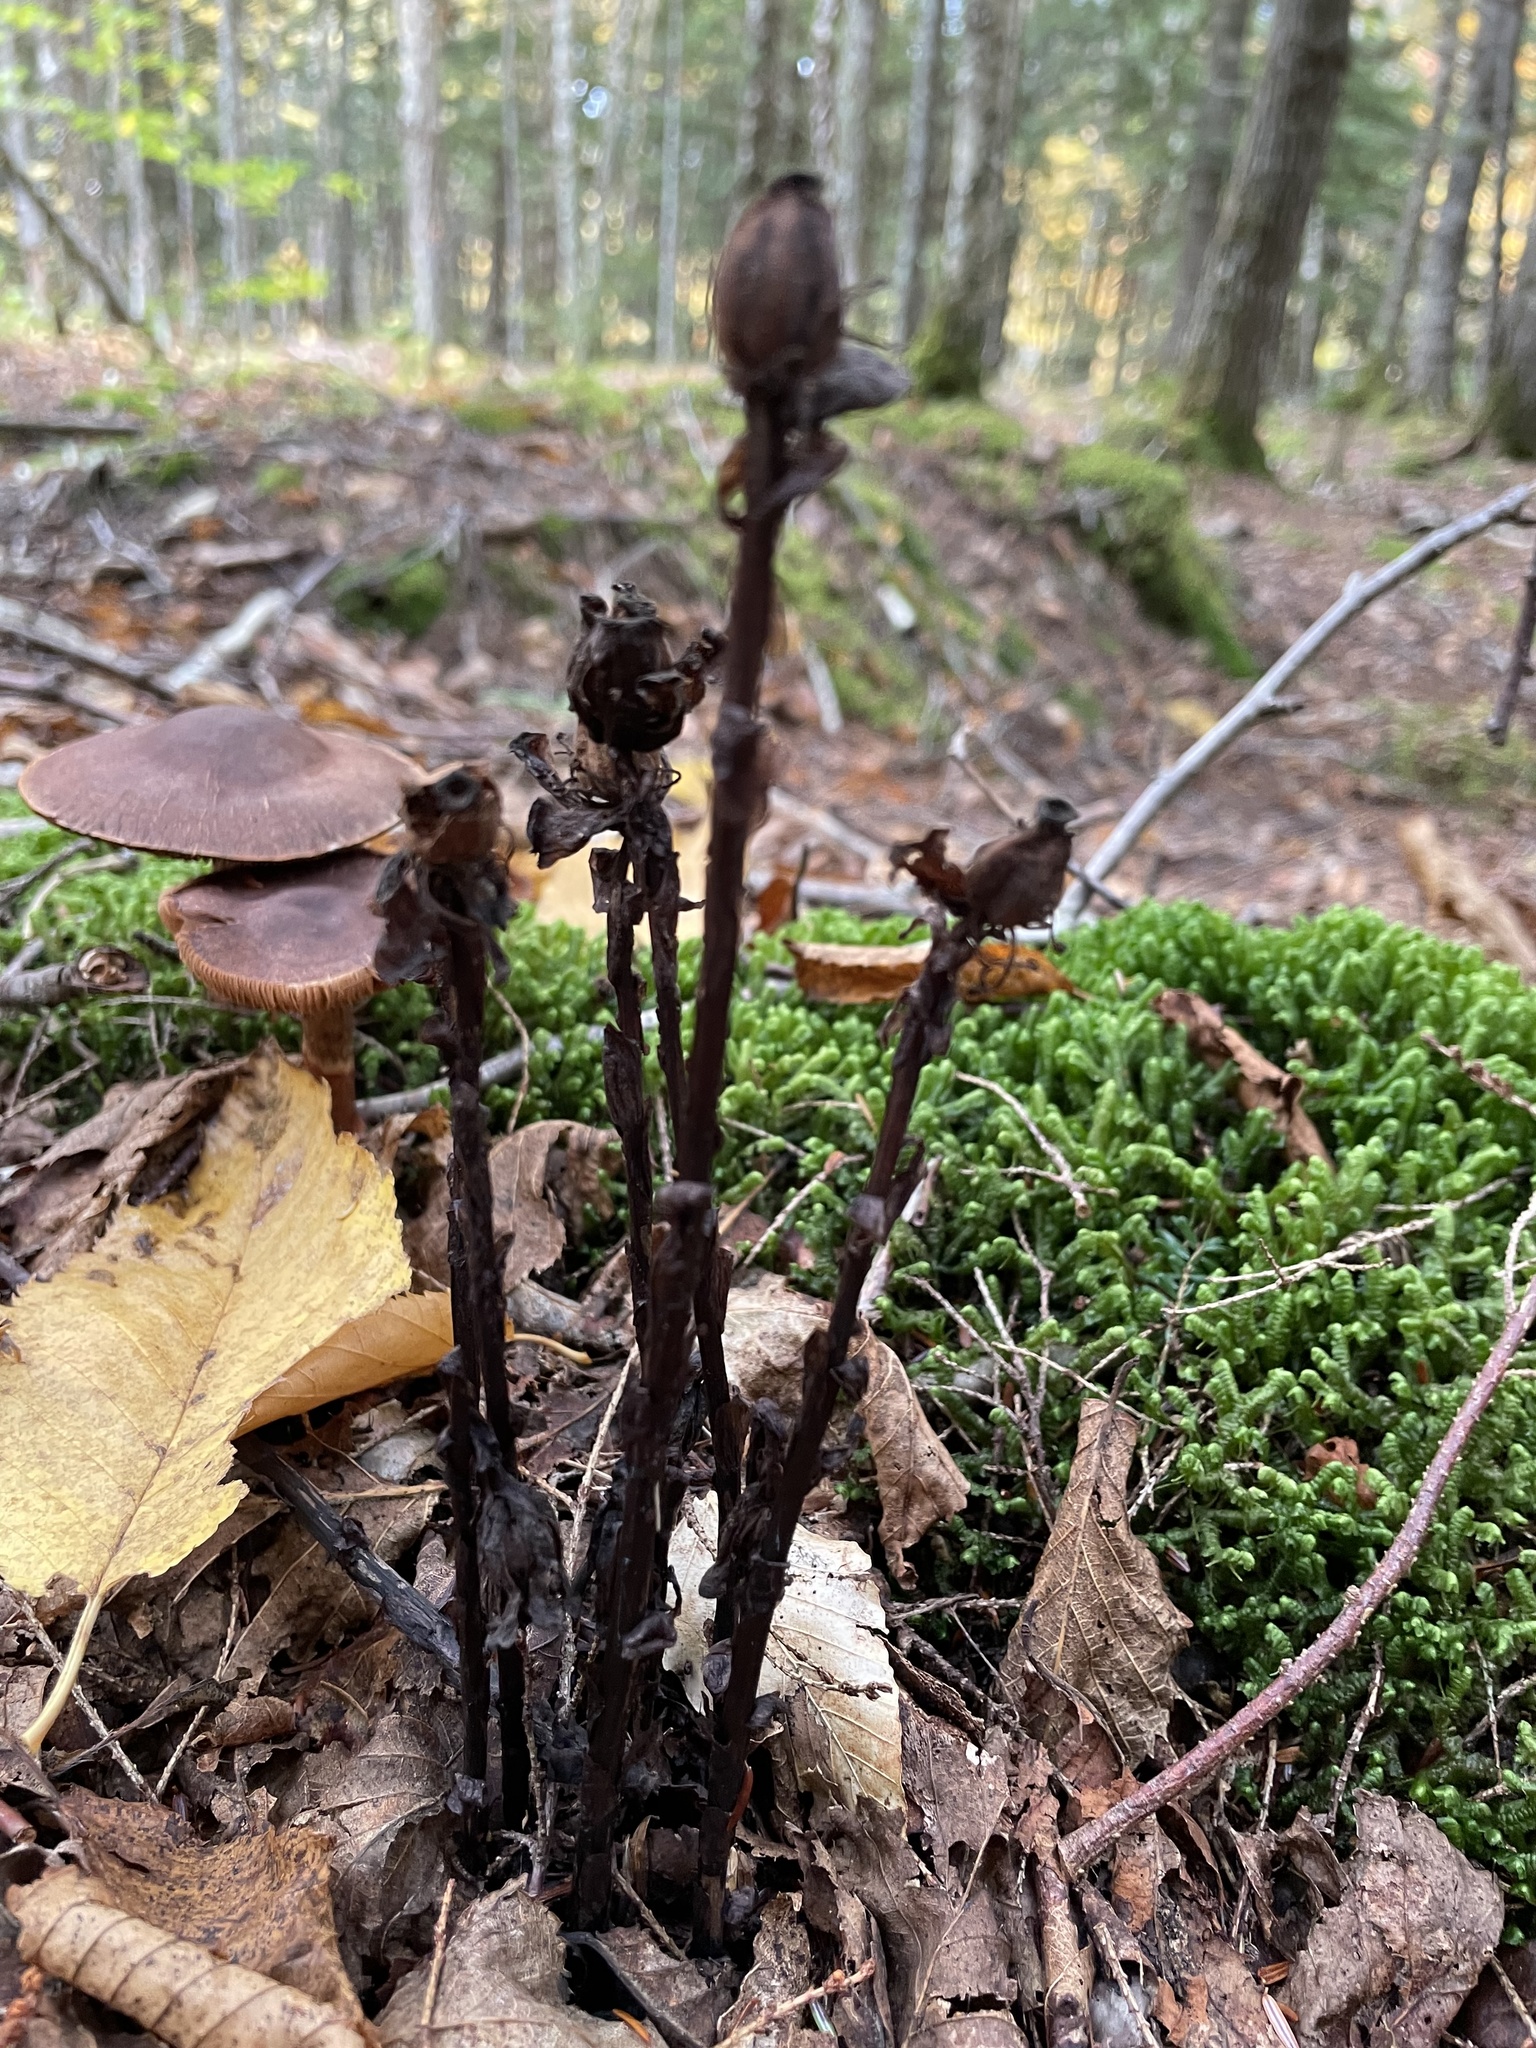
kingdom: Plantae
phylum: Tracheophyta
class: Magnoliopsida
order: Ericales
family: Ericaceae
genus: Monotropa
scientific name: Monotropa uniflora
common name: Convulsion root
